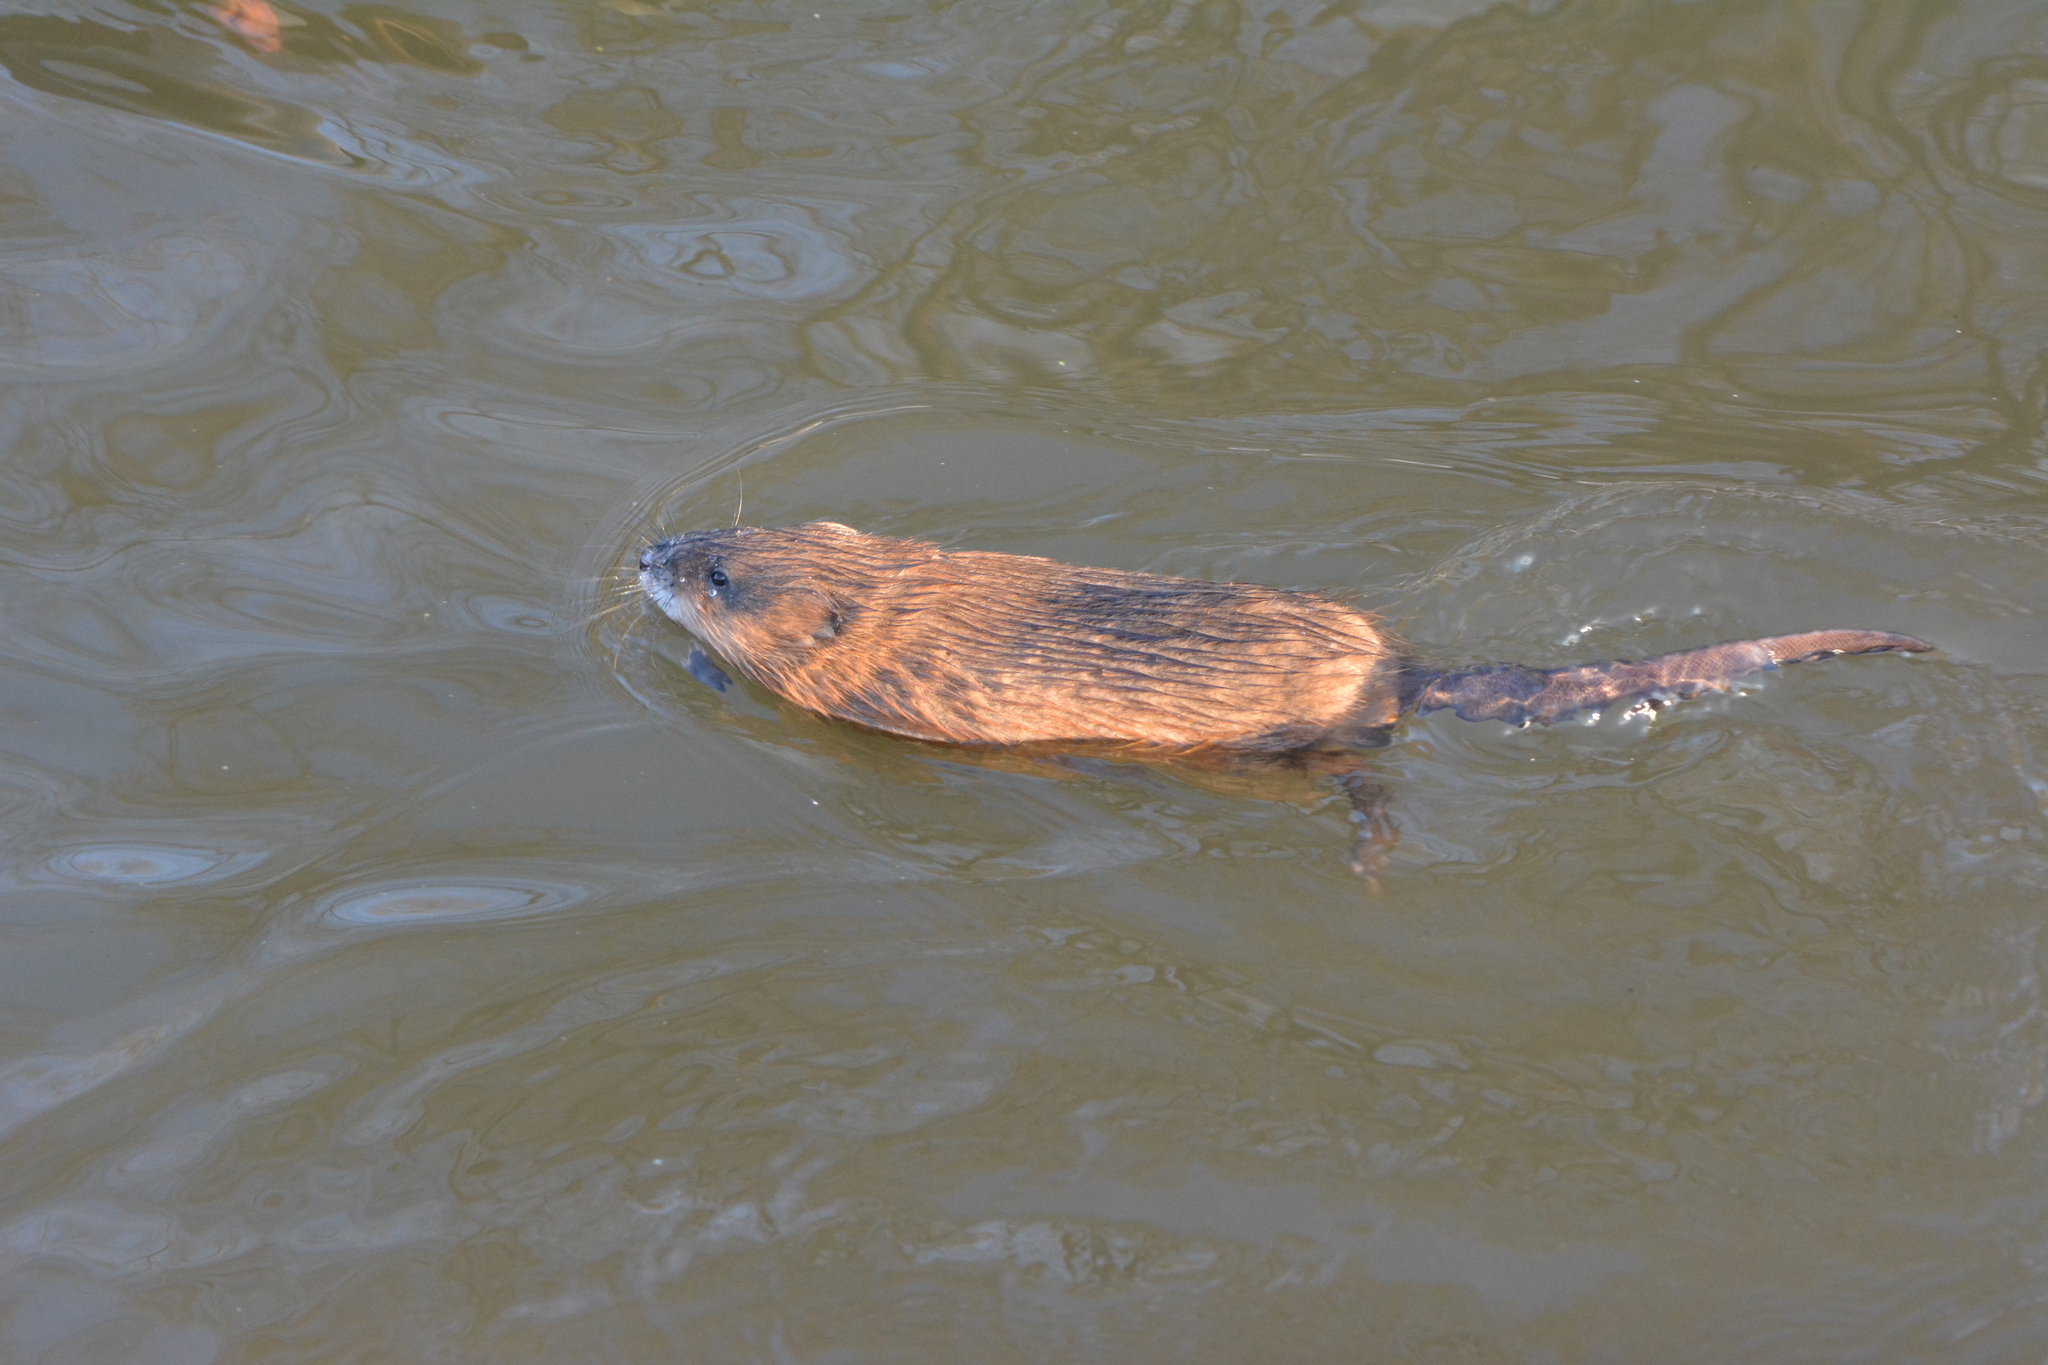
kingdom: Animalia
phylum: Chordata
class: Mammalia
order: Rodentia
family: Cricetidae
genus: Ondatra
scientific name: Ondatra zibethicus
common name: Muskrat
